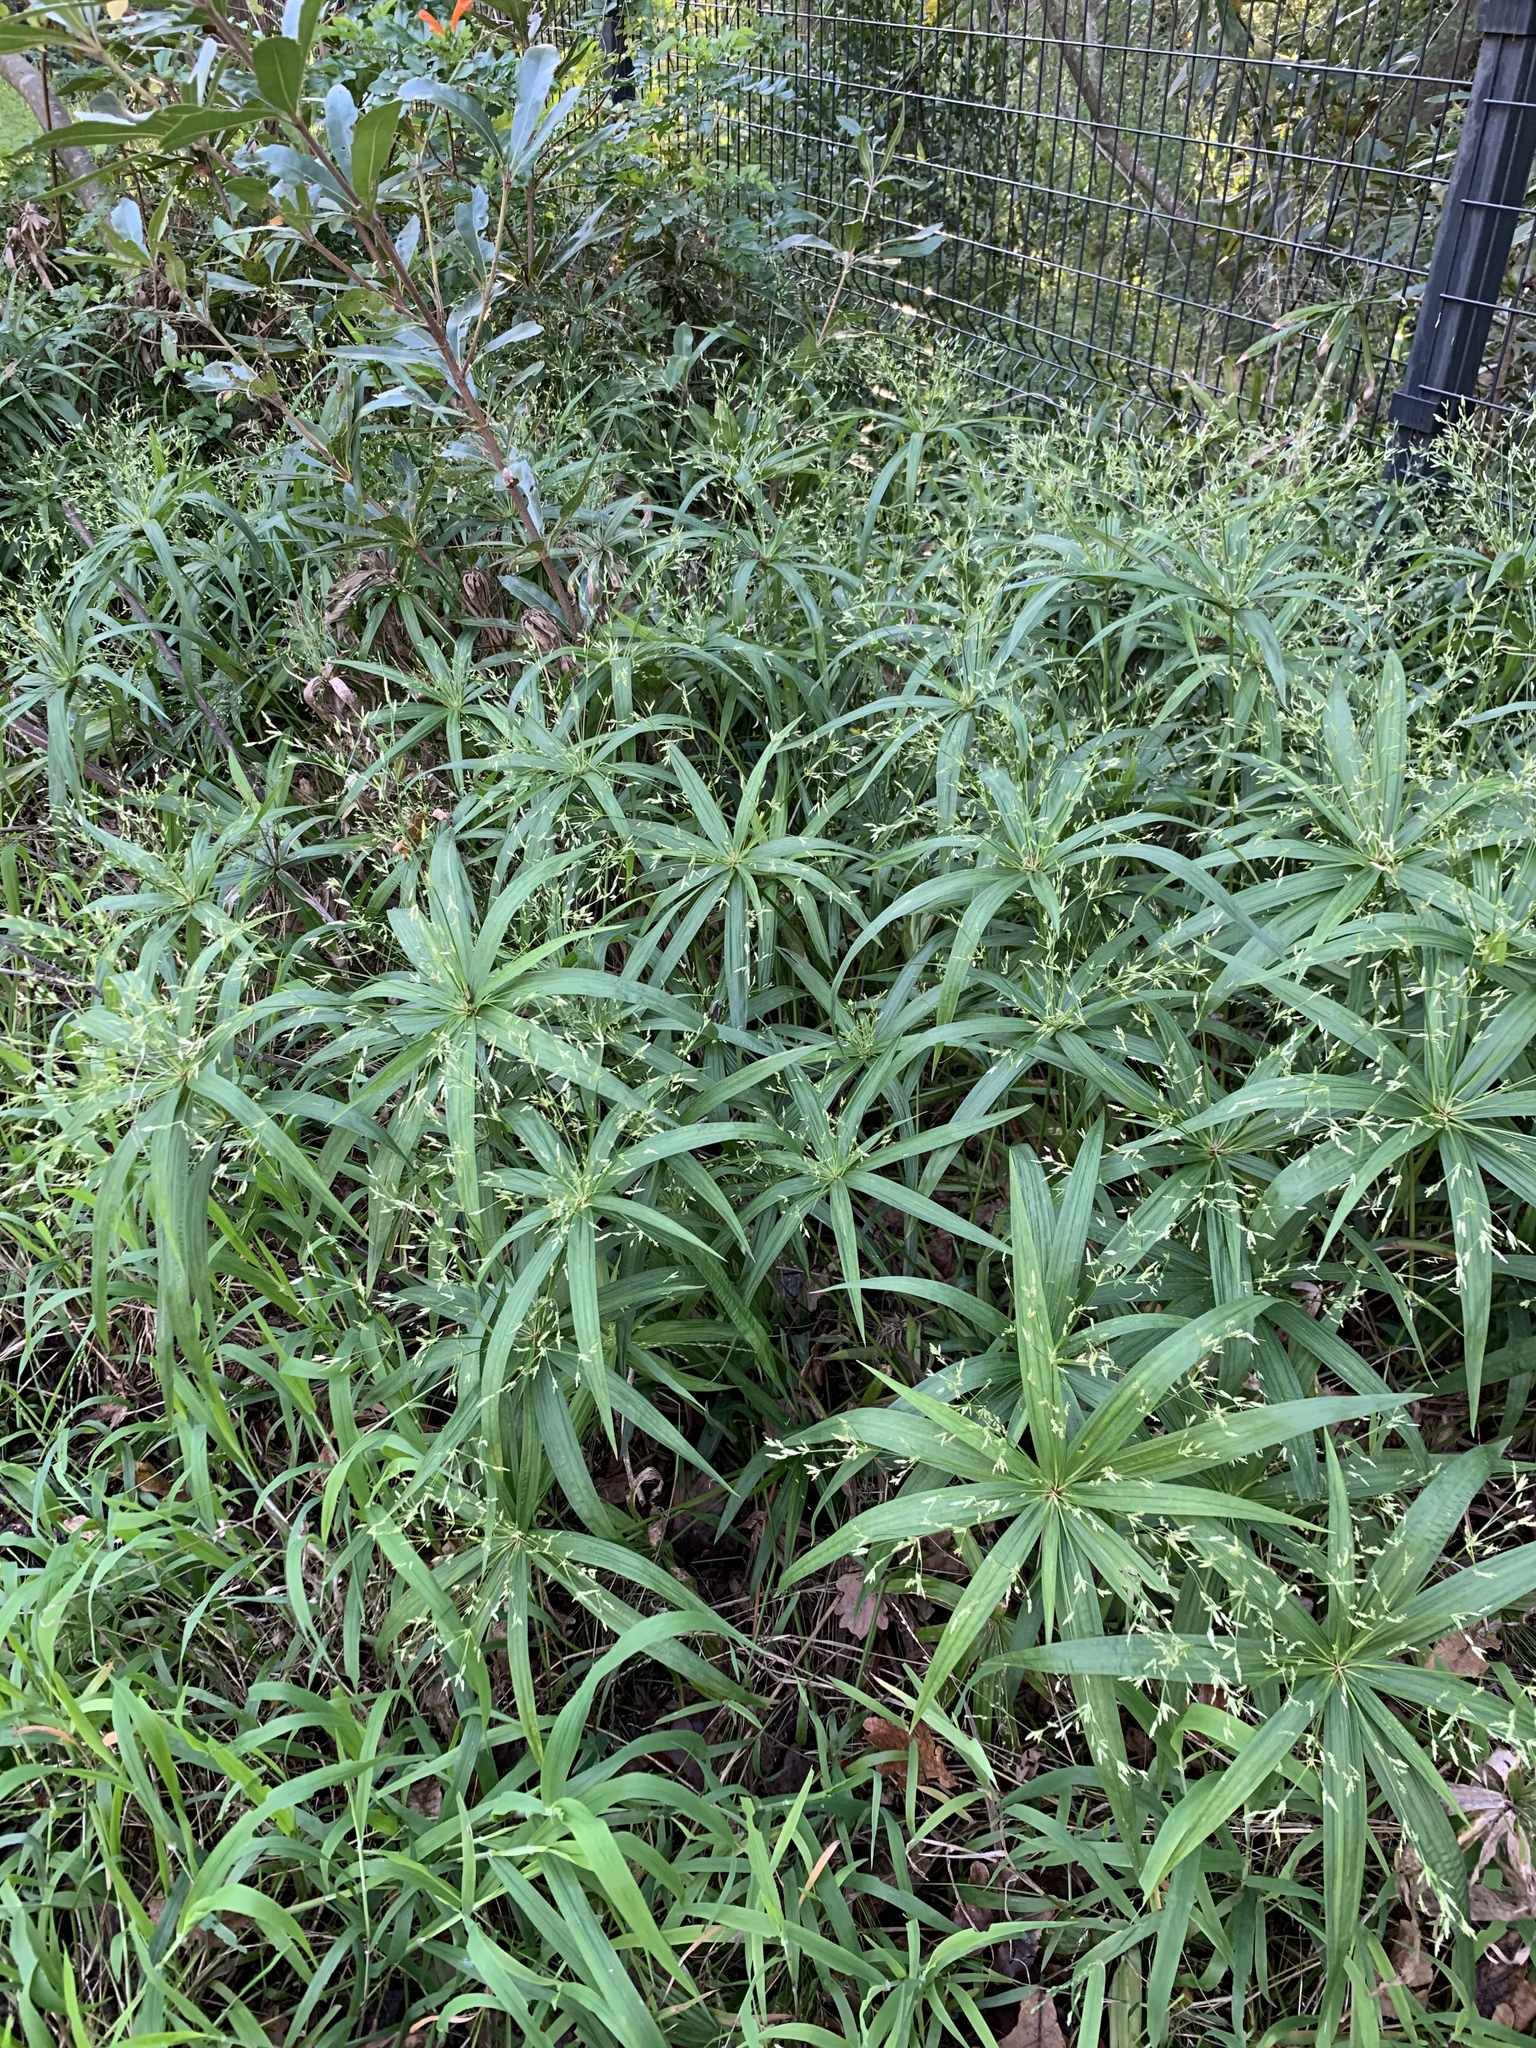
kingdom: Plantae
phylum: Tracheophyta
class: Liliopsida
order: Poales
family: Cyperaceae
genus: Cyperus
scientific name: Cyperus albostriatus
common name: Dwarf umbrella-grass
